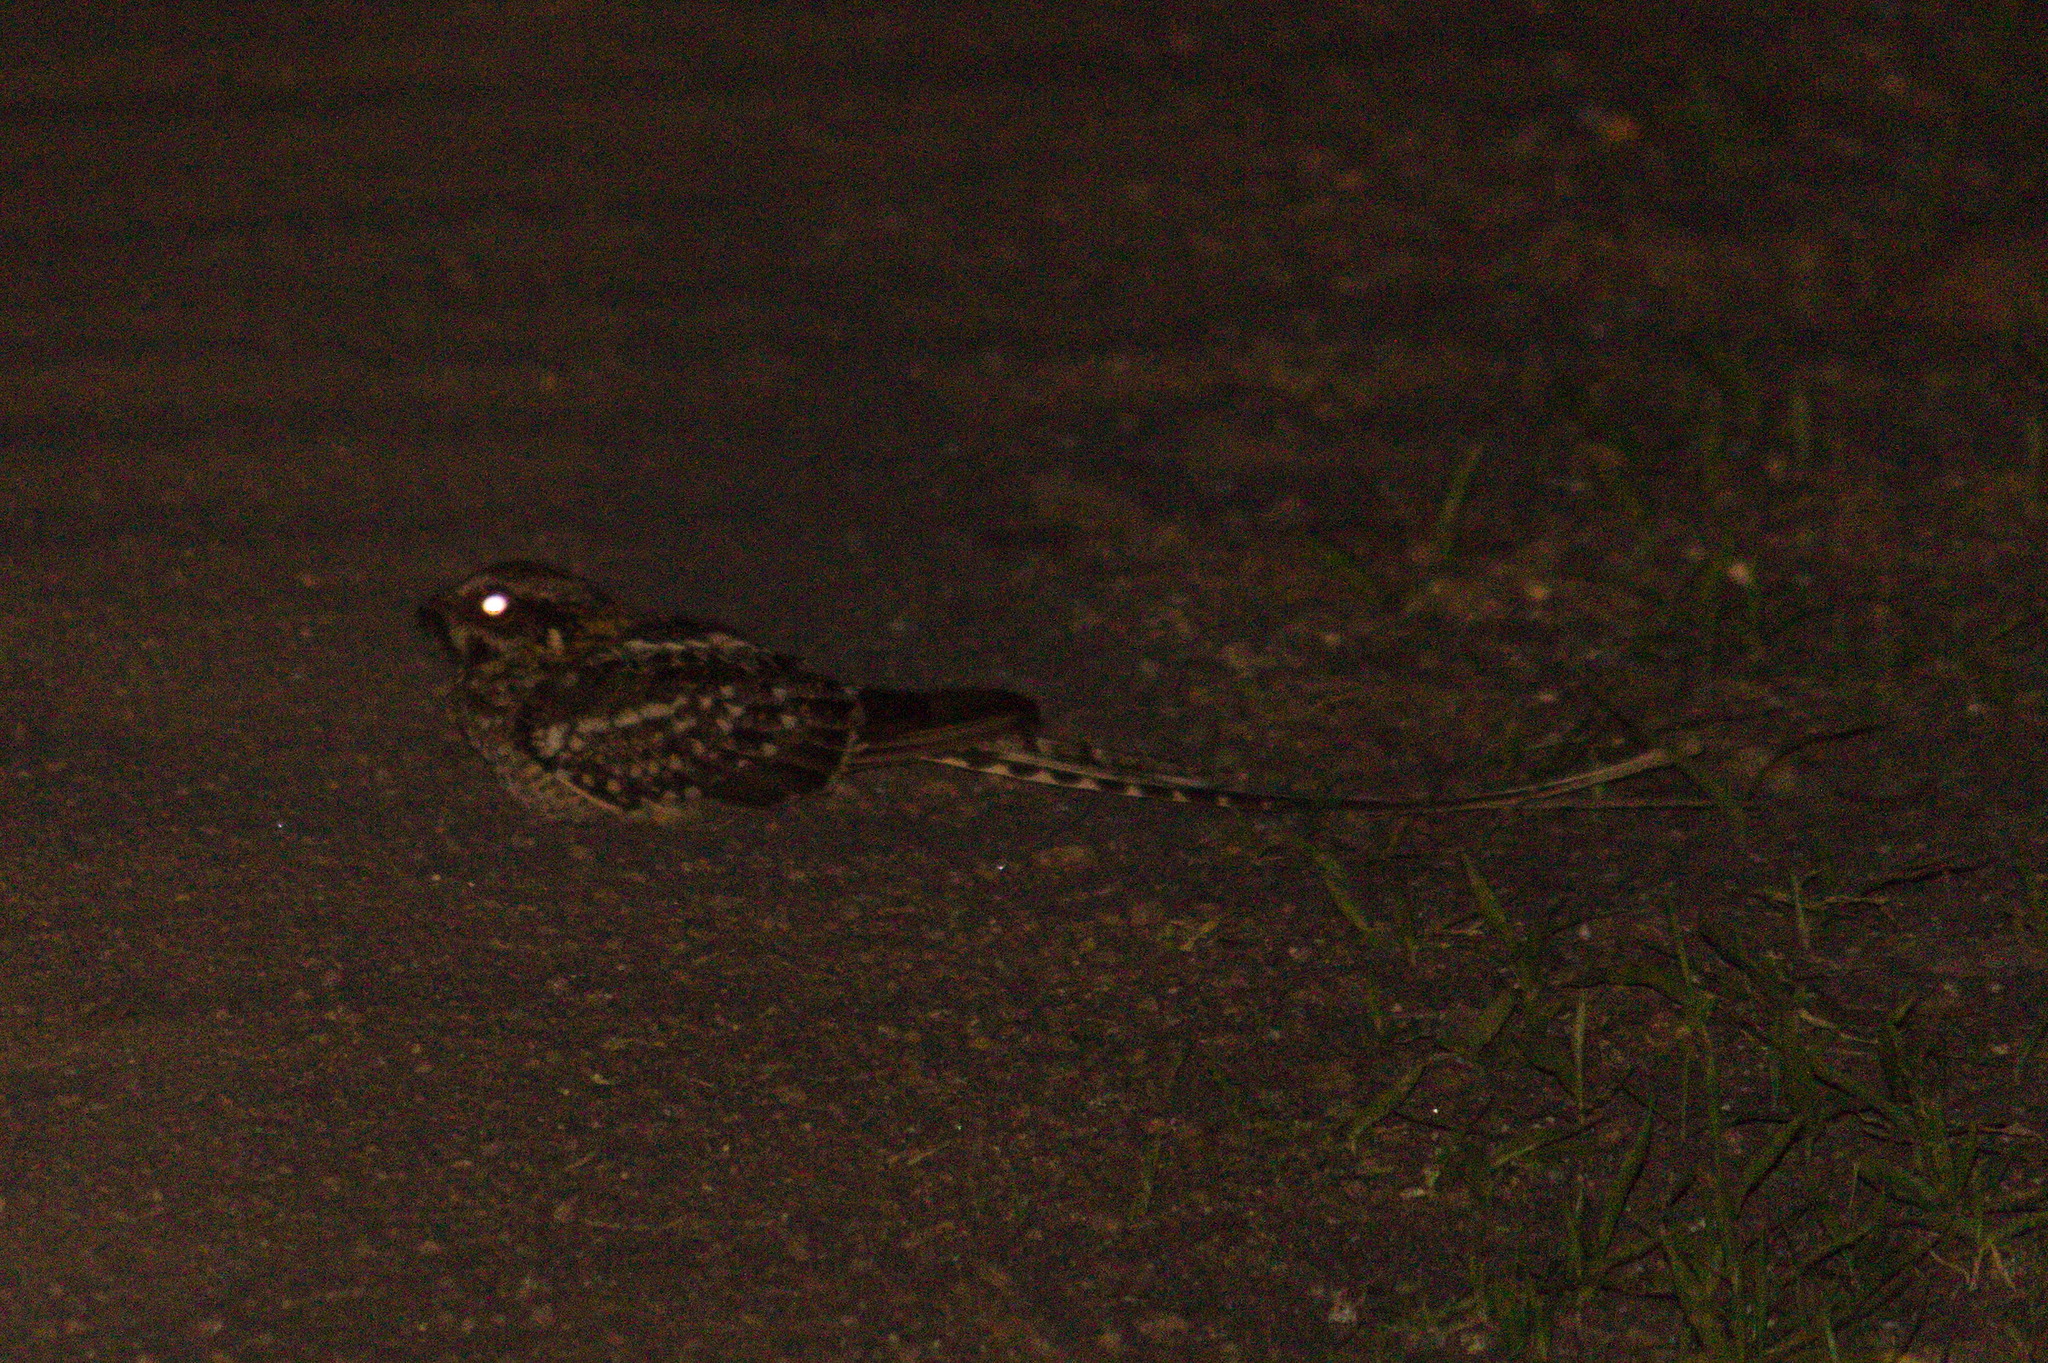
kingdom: Animalia
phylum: Chordata
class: Aves
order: Caprimulgiformes
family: Caprimulgidae
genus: Hydropsalis
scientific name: Hydropsalis torquata
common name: Scissor-tailed nightjar
